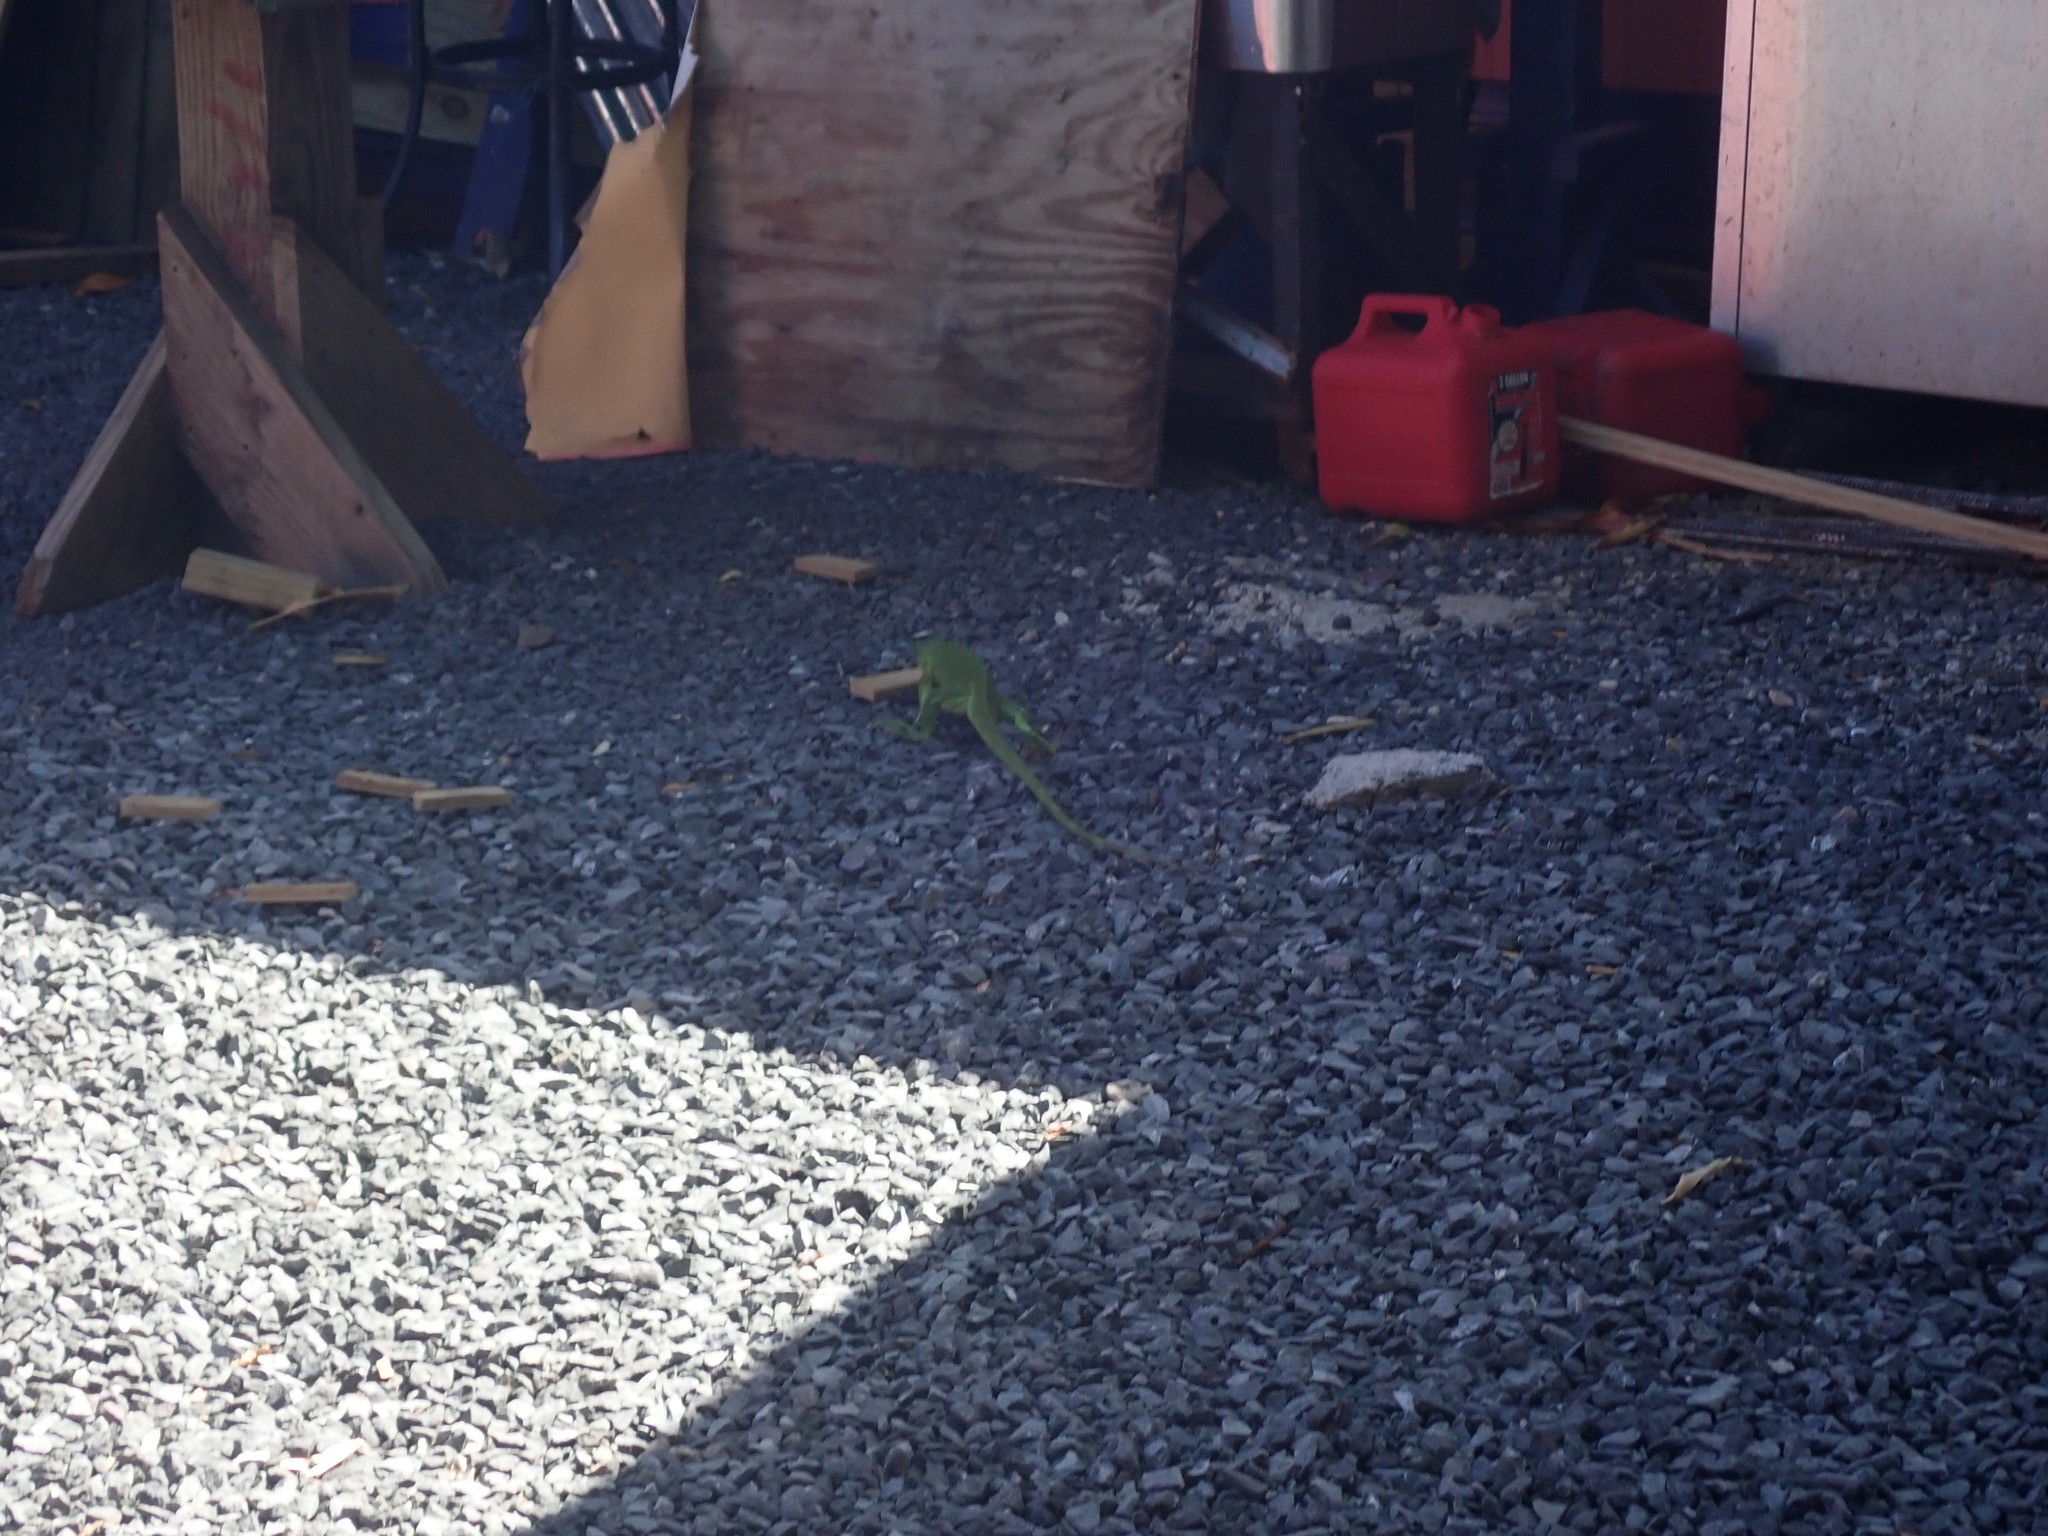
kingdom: Animalia
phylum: Chordata
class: Squamata
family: Iguanidae
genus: Iguana
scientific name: Iguana iguana
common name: Green iguana
